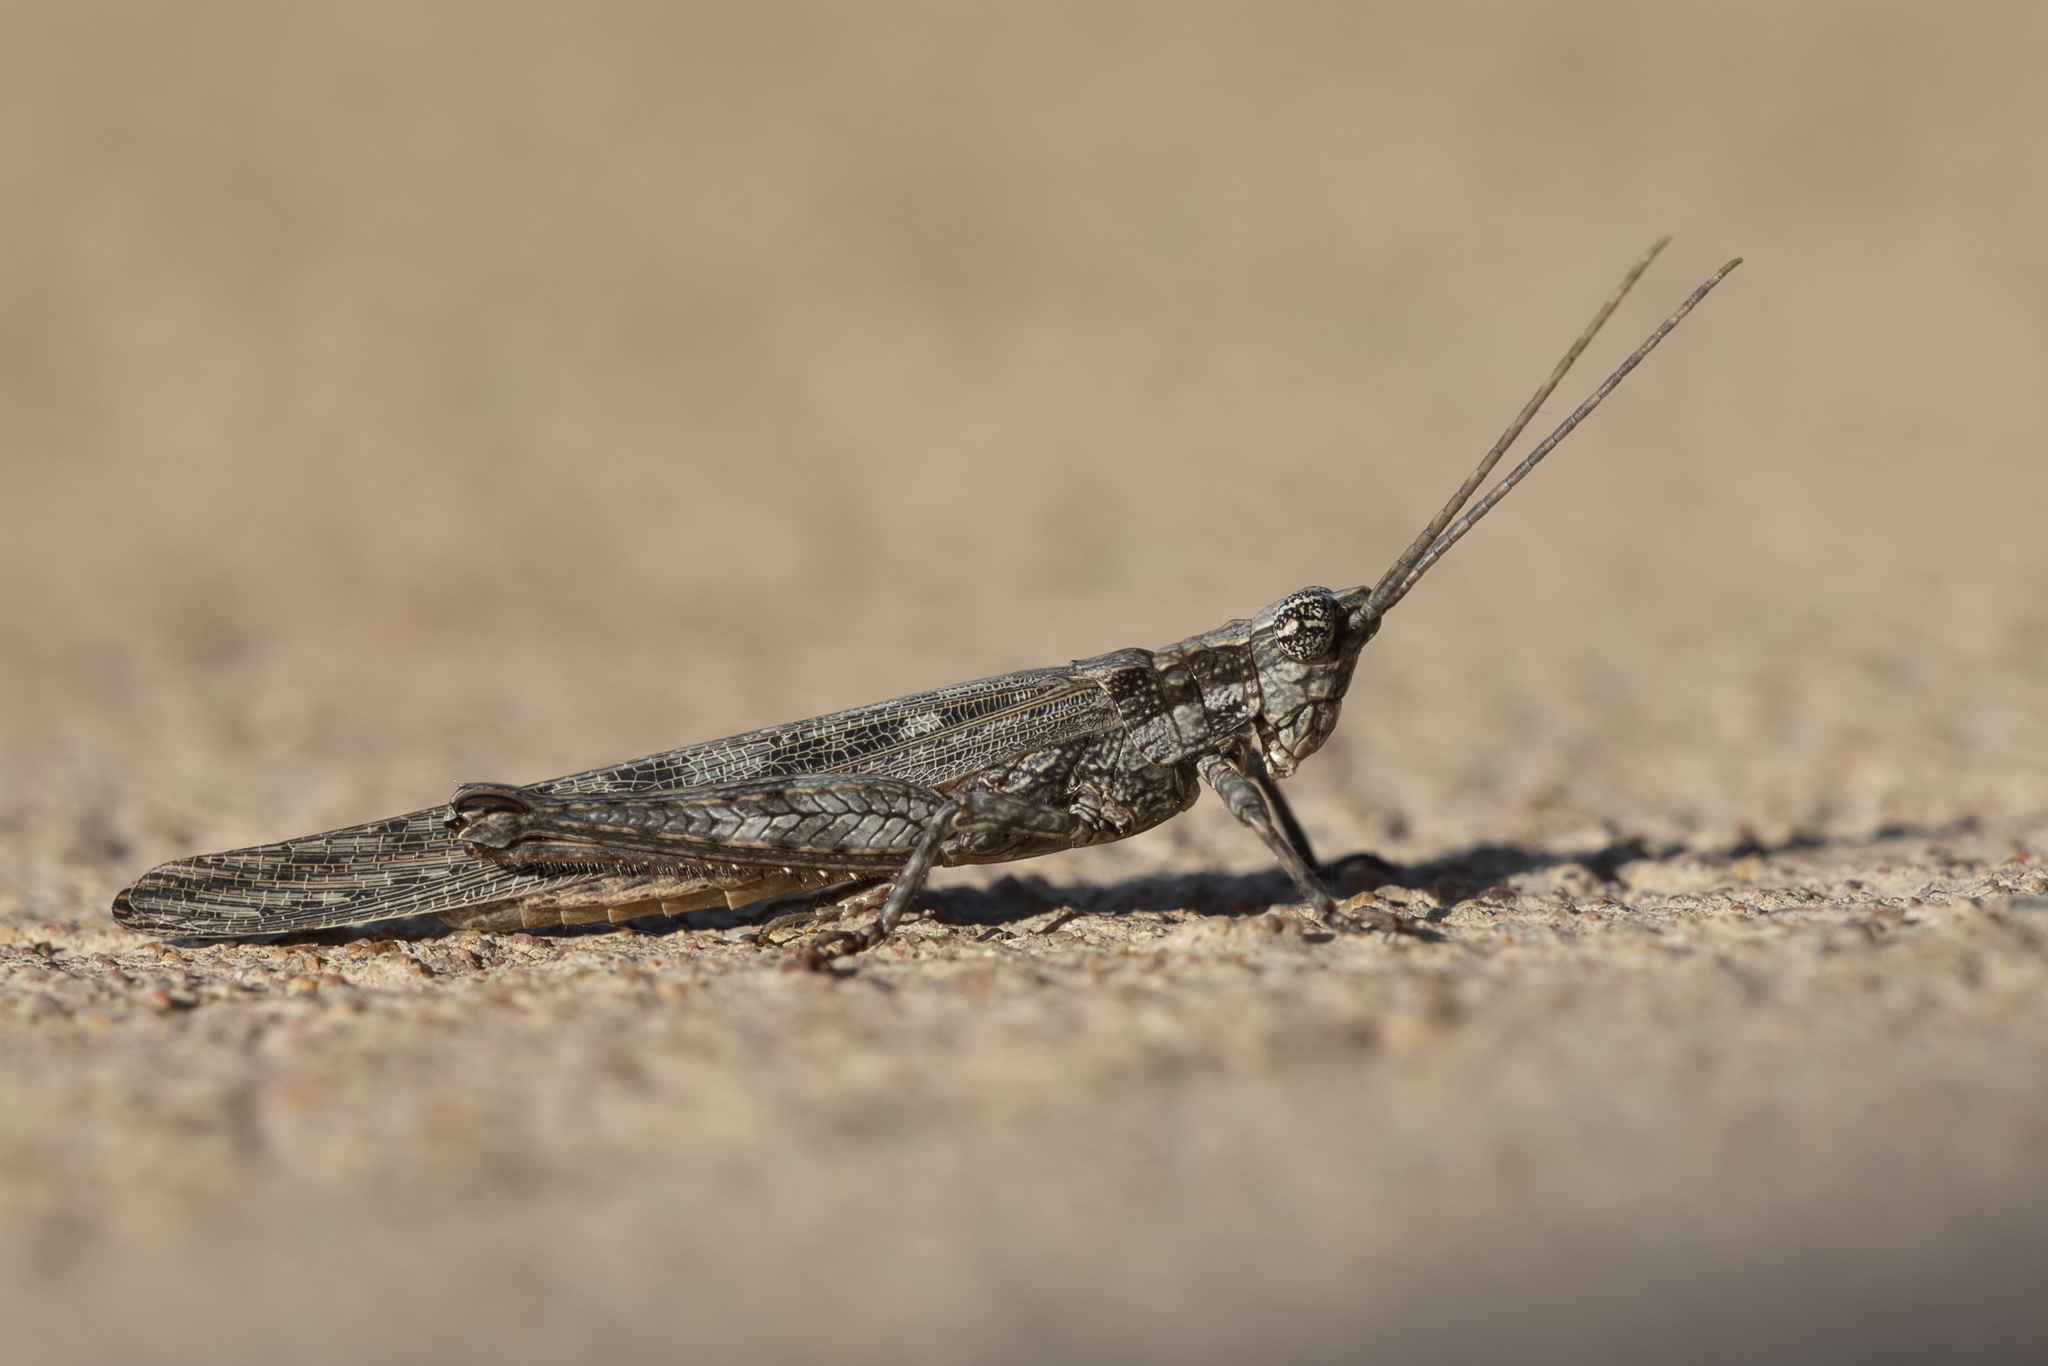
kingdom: Animalia
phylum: Arthropoda
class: Insecta
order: Orthoptera
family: Acrididae
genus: Coryphistes
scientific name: Coryphistes interioris
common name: Hairy coryphistes
